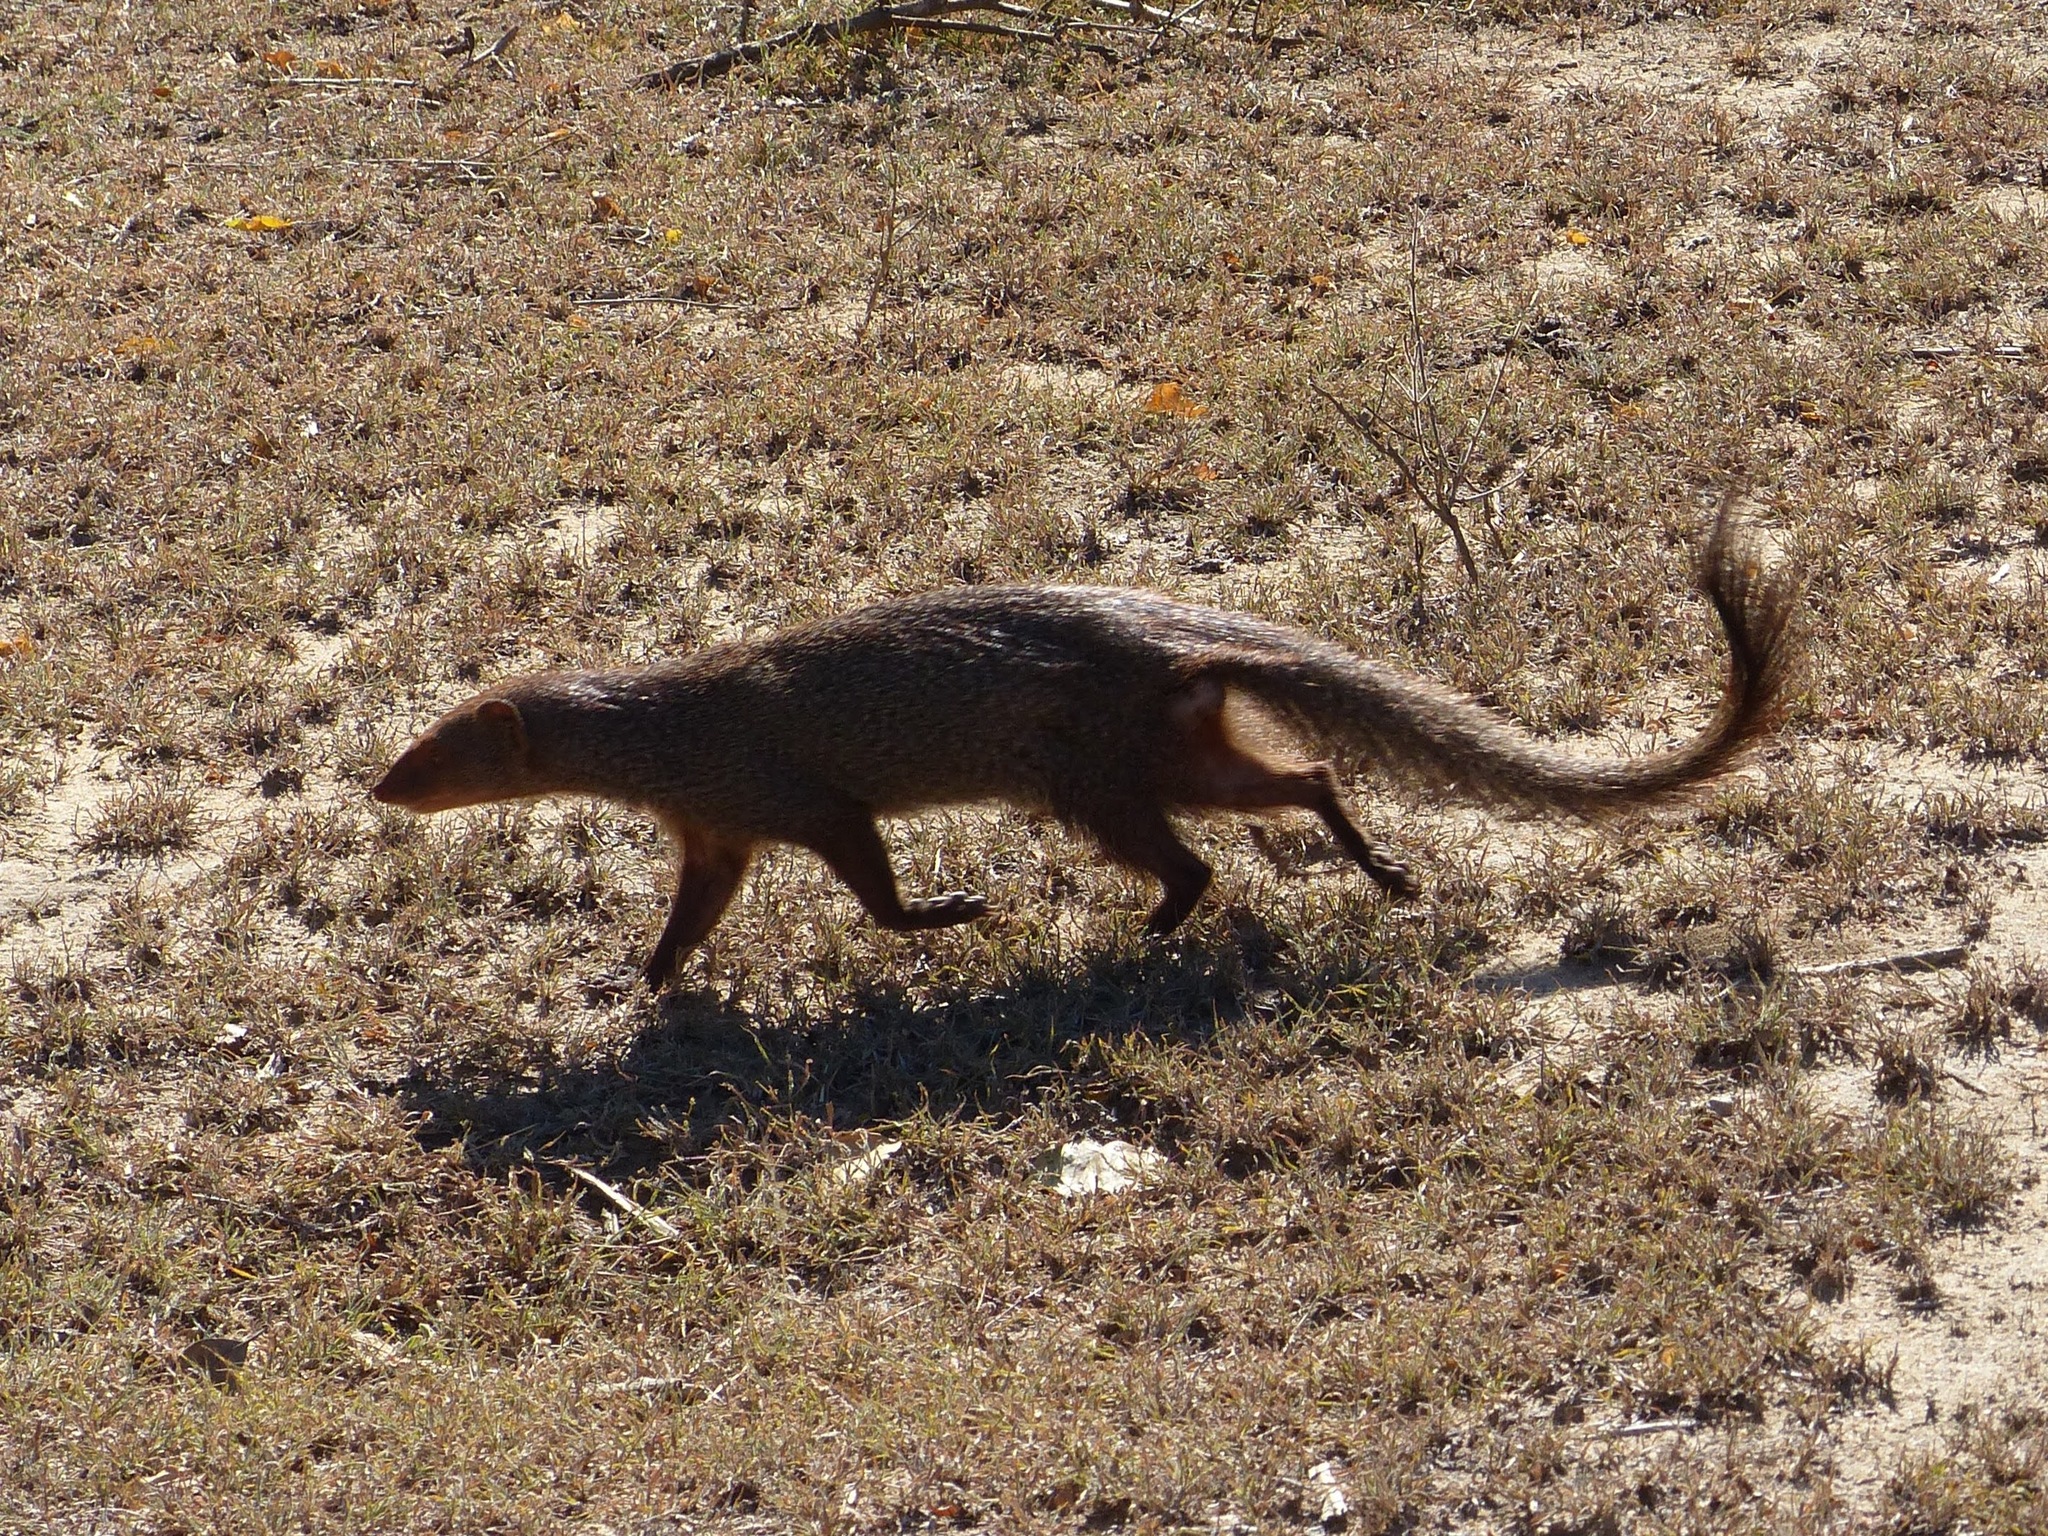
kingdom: Animalia
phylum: Chordata
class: Mammalia
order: Carnivora
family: Herpestidae
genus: Herpestes
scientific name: Herpestes smithii
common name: Ruddy mongoose
